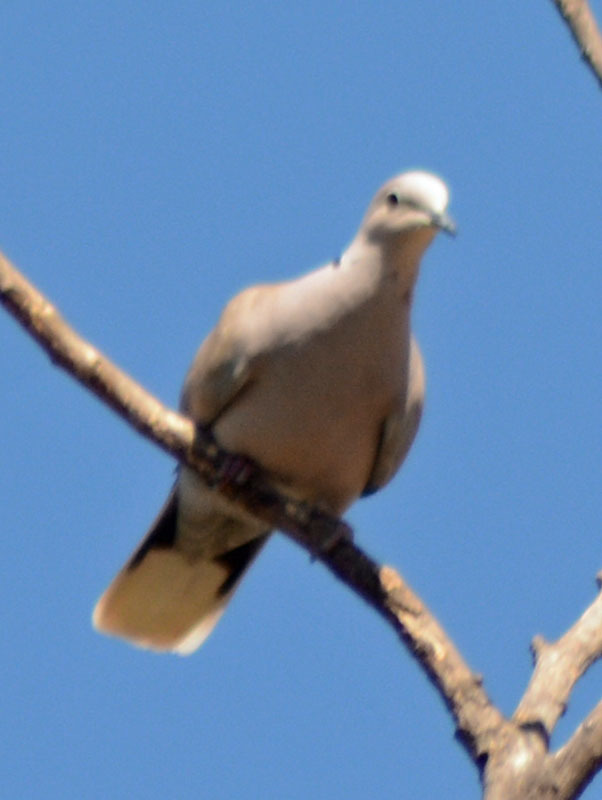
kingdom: Animalia
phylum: Chordata
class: Aves
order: Columbiformes
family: Columbidae
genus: Streptopelia
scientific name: Streptopelia decaocto
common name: Eurasian collared dove
